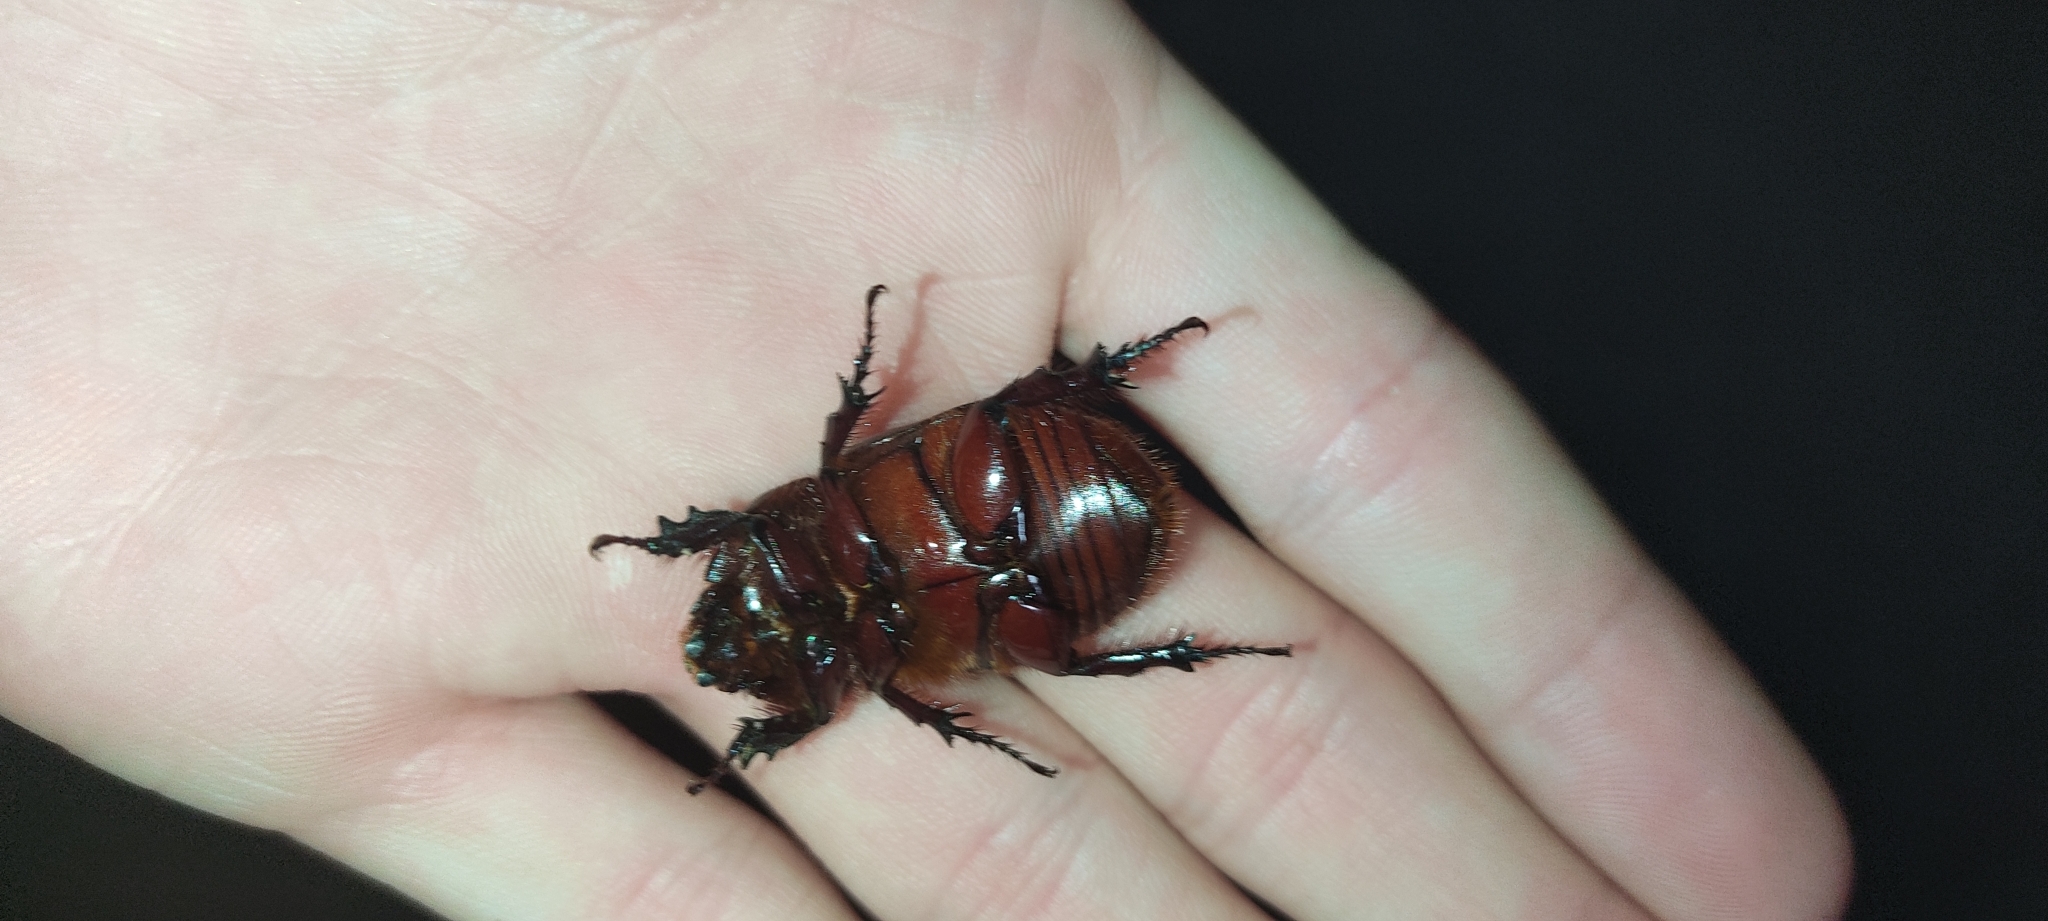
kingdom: Animalia
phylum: Arthropoda
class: Insecta
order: Coleoptera
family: Scarabaeidae
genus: Oryctes
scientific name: Oryctes nasicornis
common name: European rhinoceros beetle
